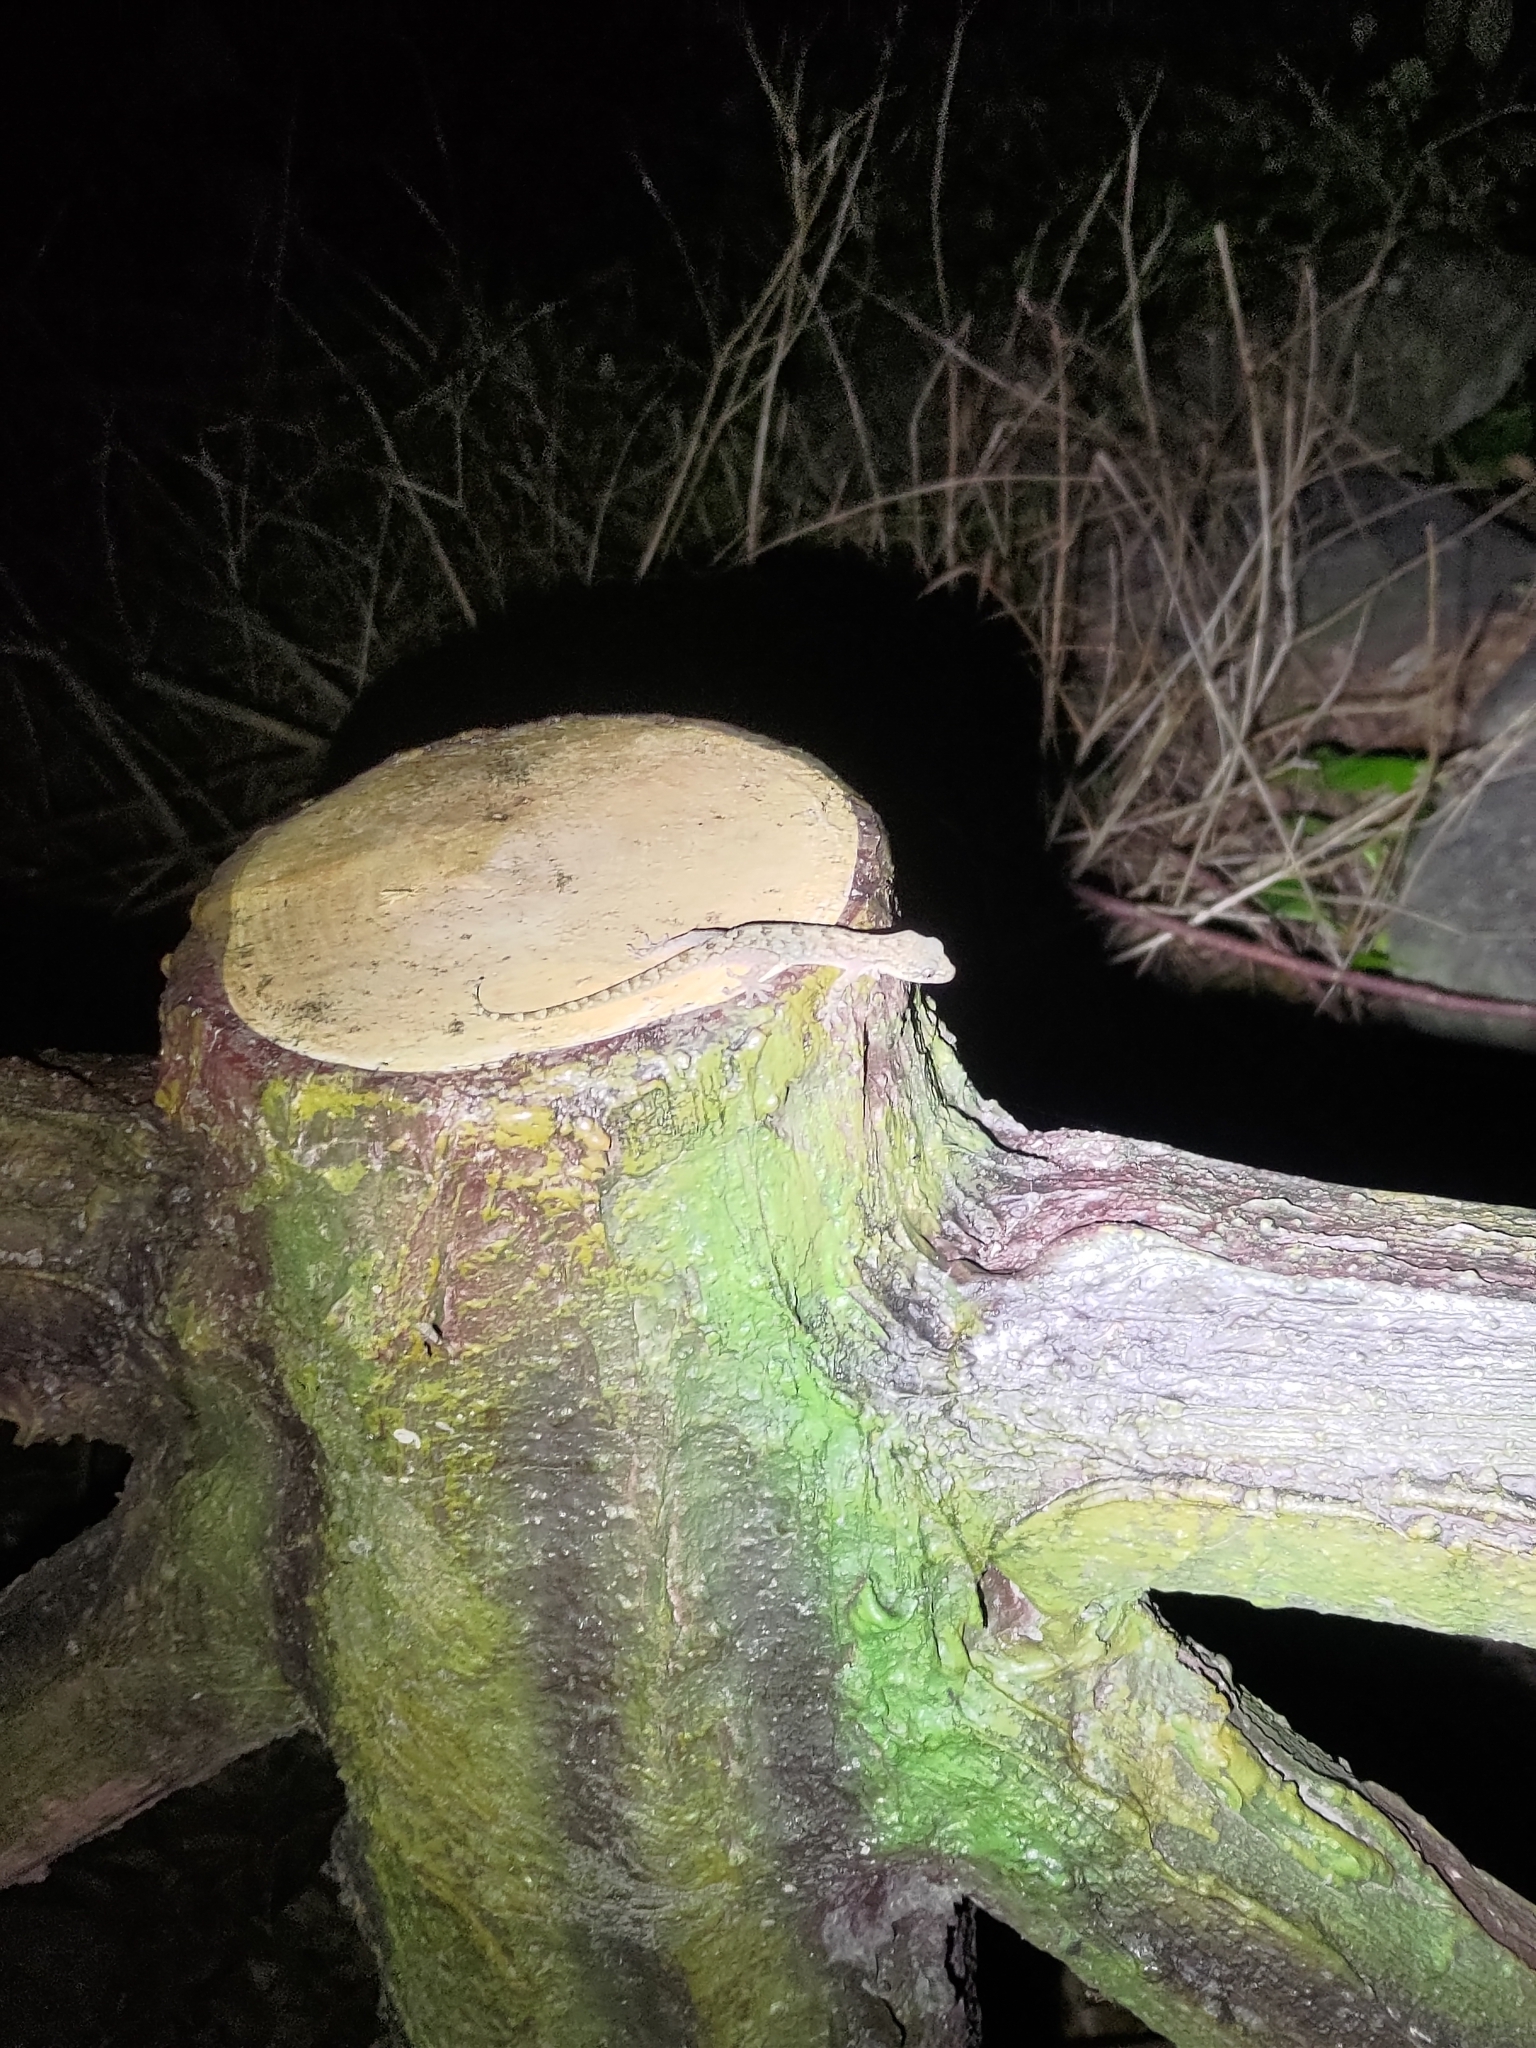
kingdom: Animalia
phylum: Chordata
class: Squamata
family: Gekkonidae
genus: Gekko
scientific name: Gekko hokouensis
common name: Kwangsi gecko
